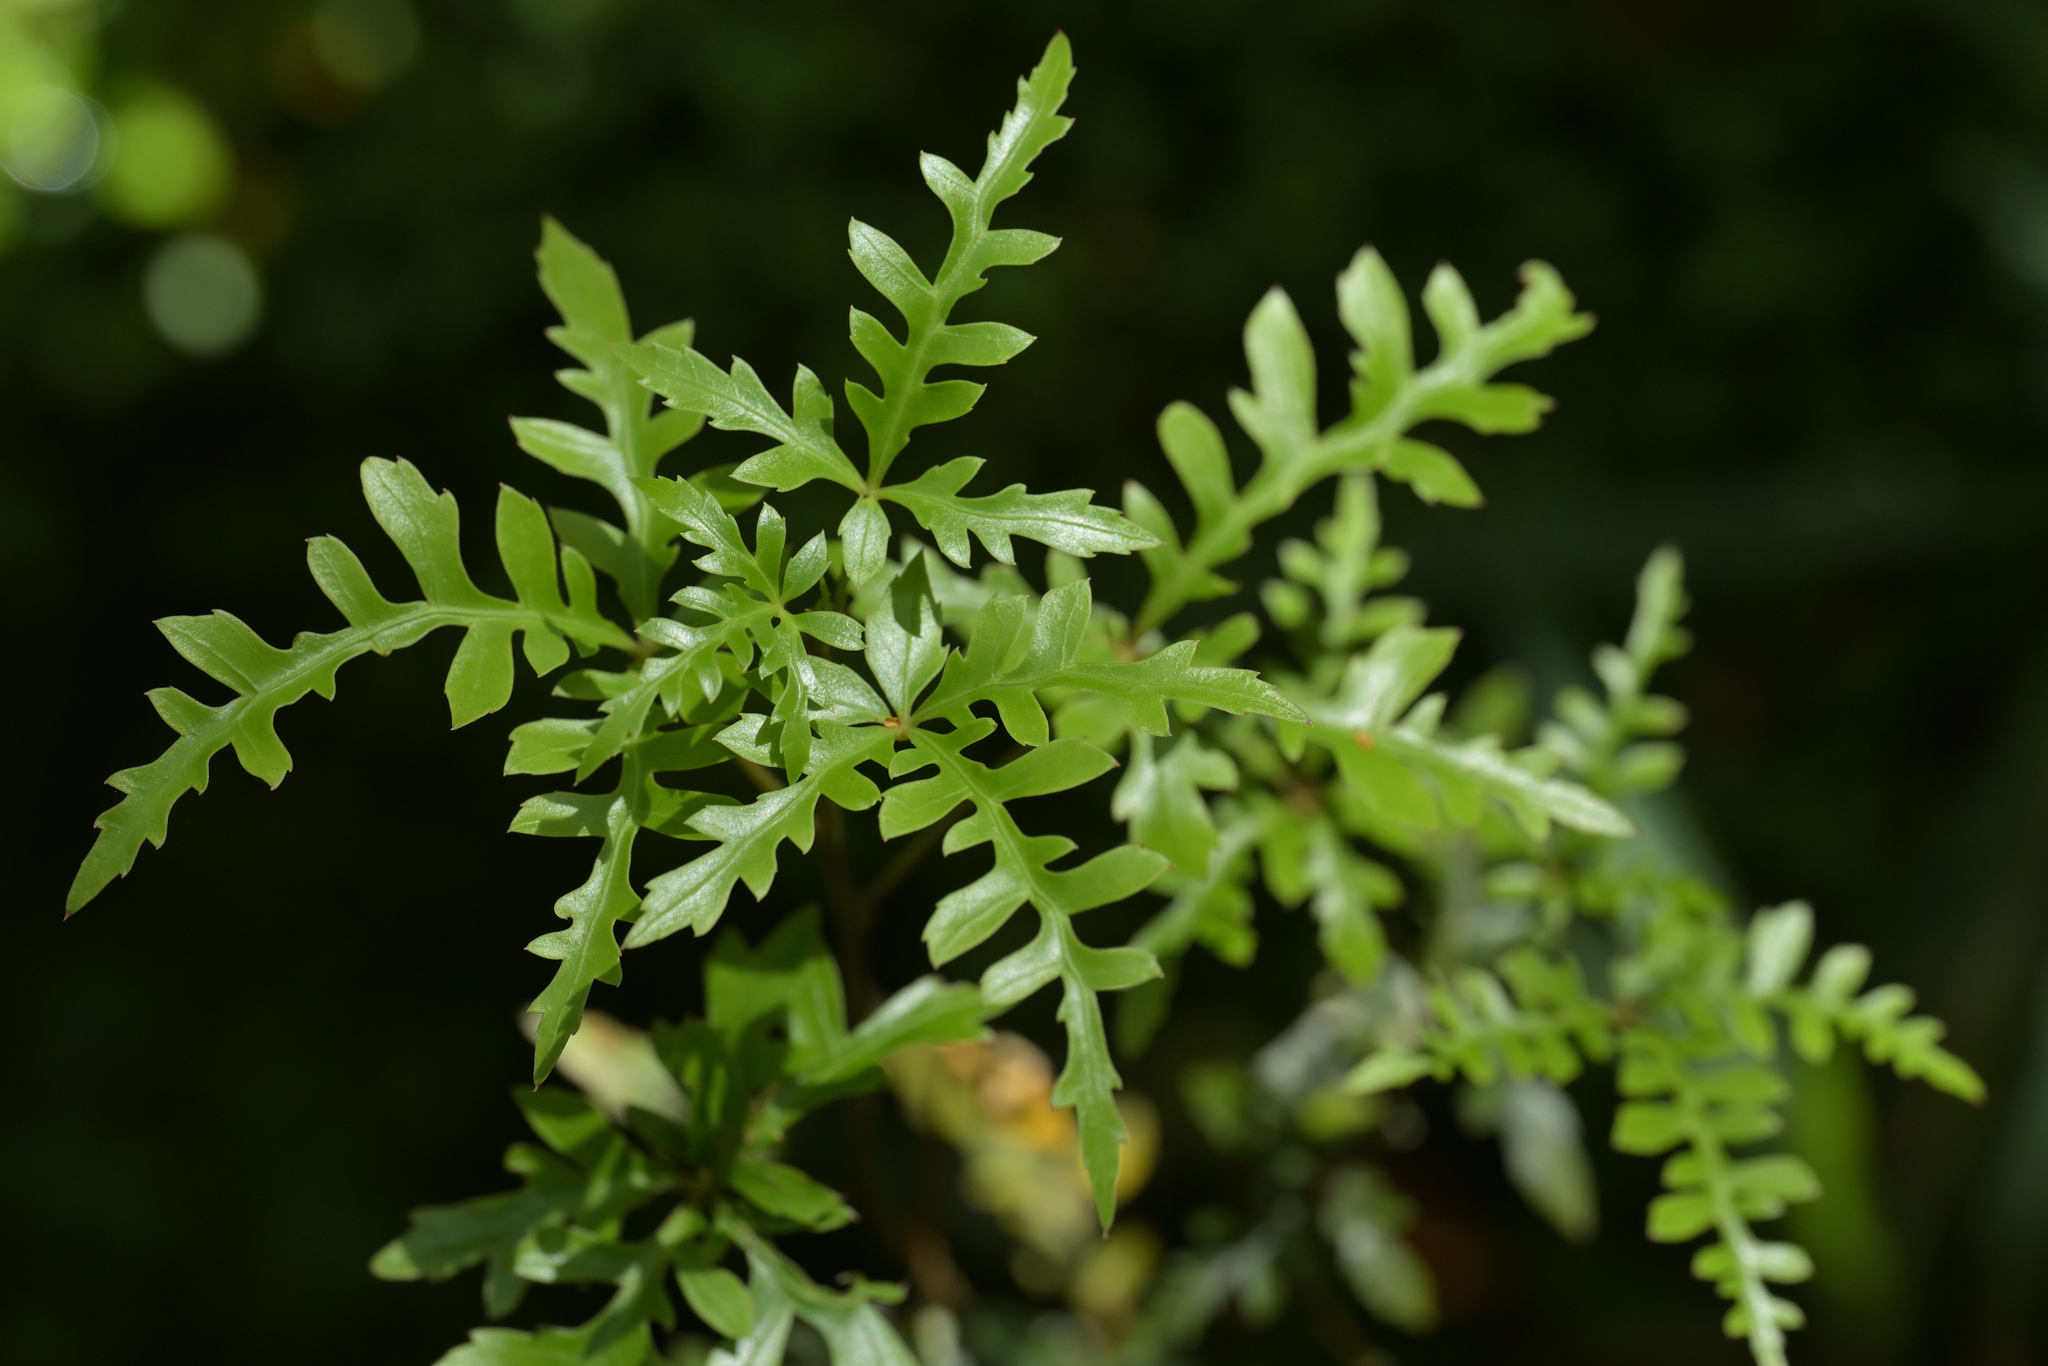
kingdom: Plantae
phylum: Tracheophyta
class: Magnoliopsida
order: Apiales
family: Araliaceae
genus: Raukaua
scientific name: Raukaua simplex
